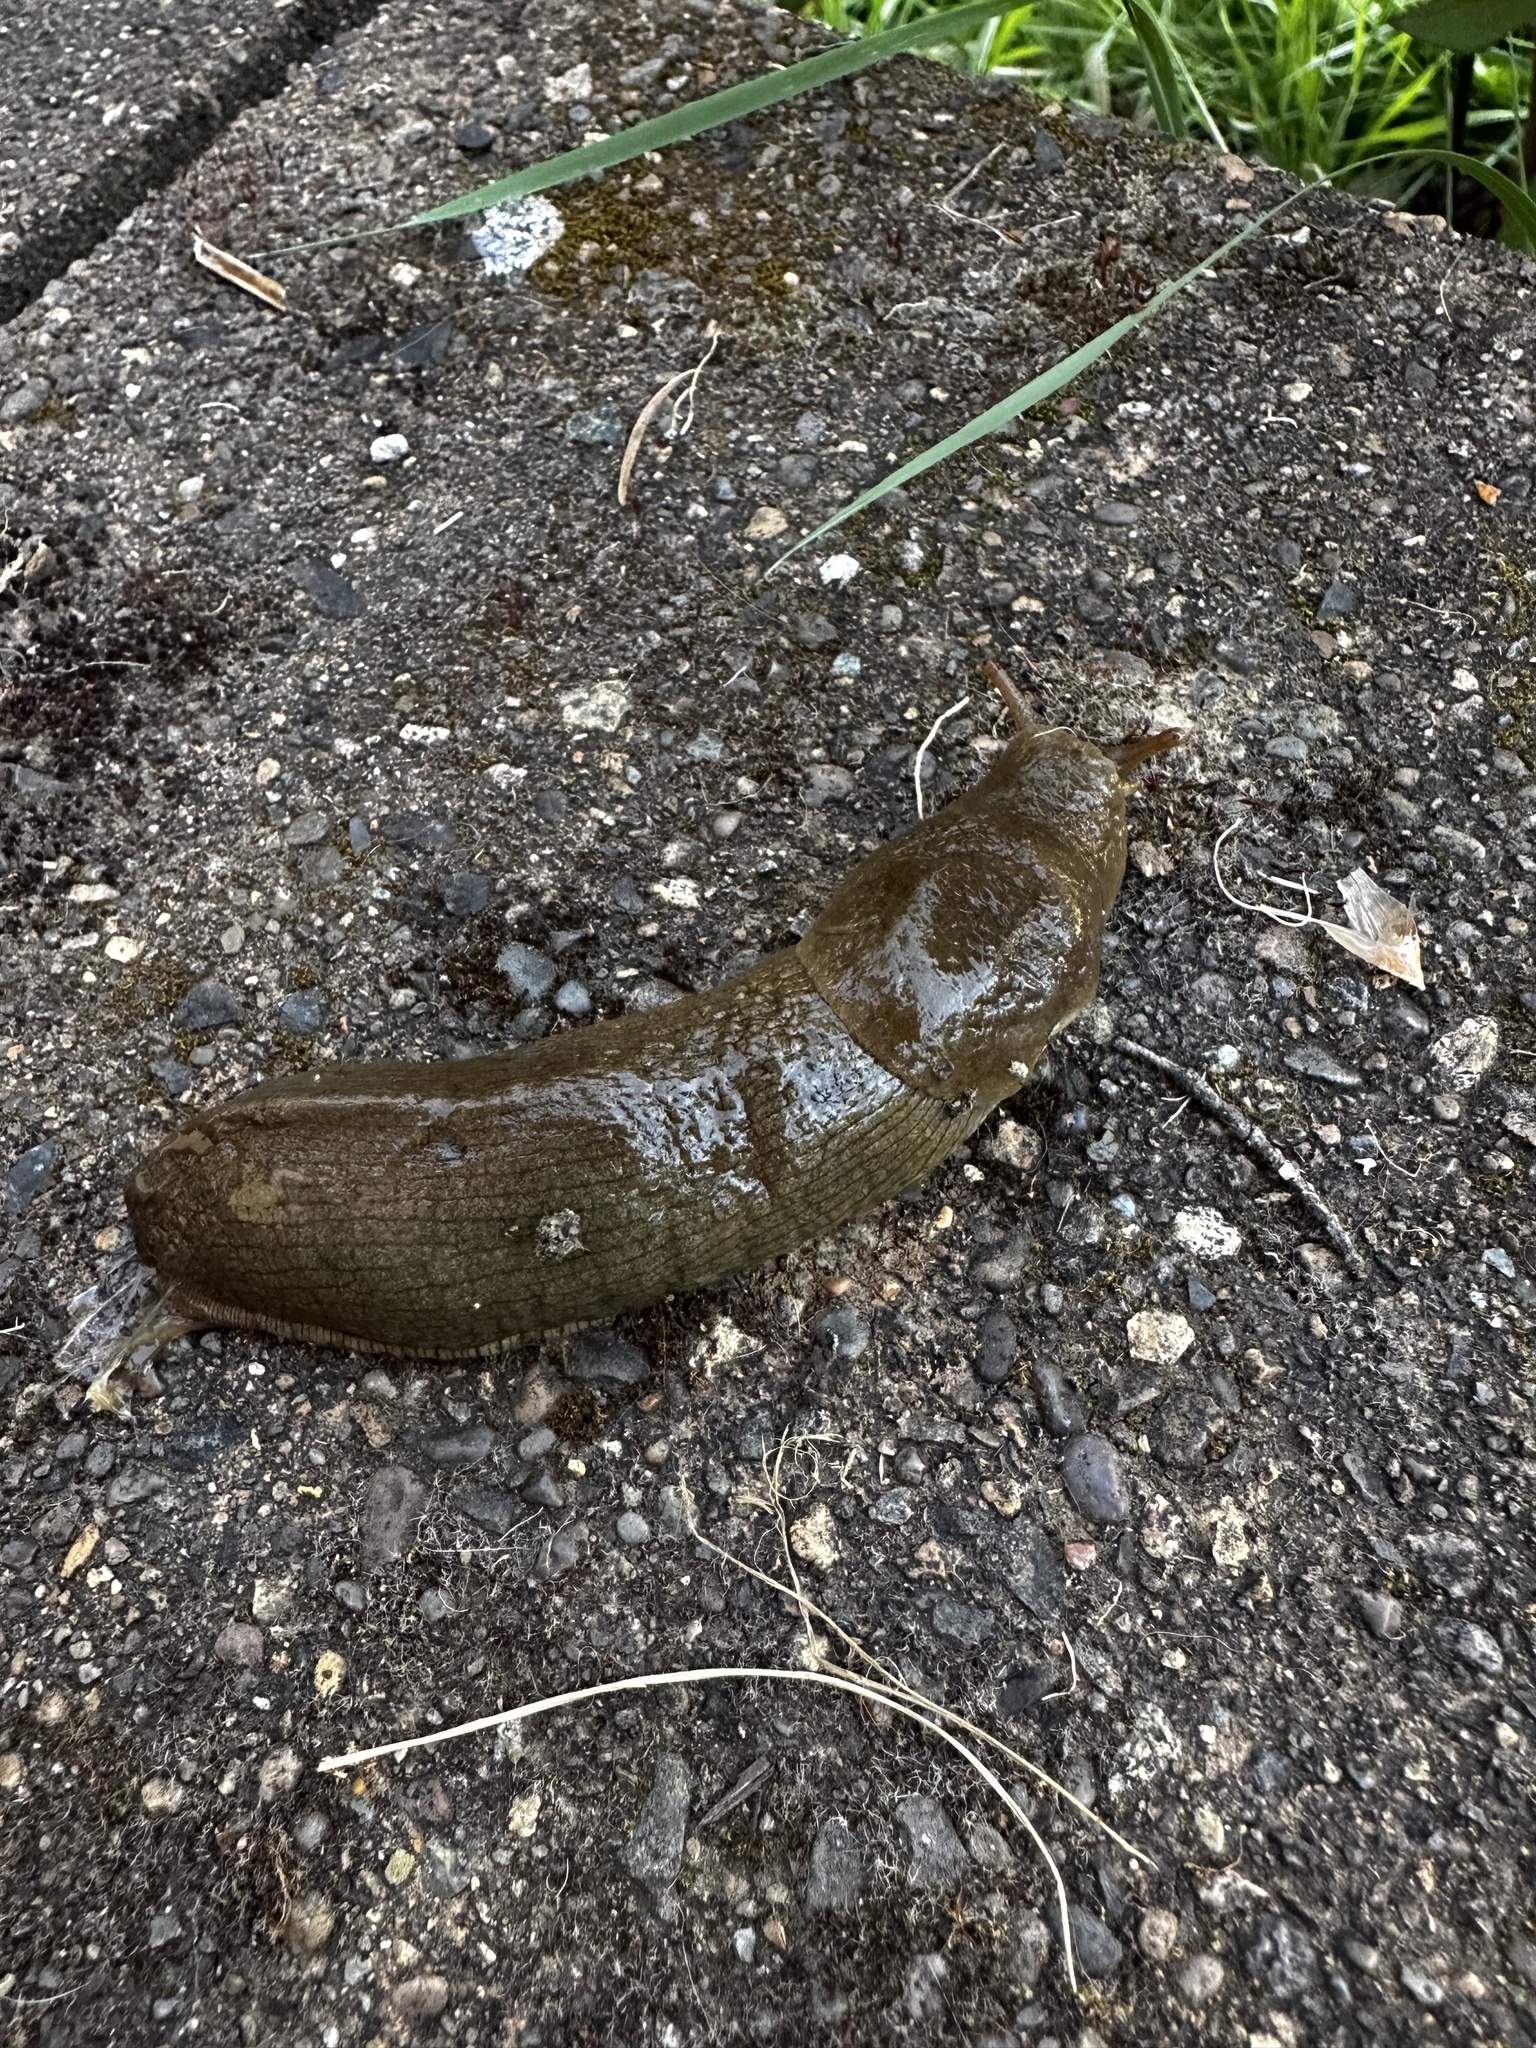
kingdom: Animalia
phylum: Mollusca
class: Gastropoda
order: Stylommatophora
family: Ariolimacidae
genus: Ariolimax
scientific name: Ariolimax columbianus
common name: Pacific banana slug
